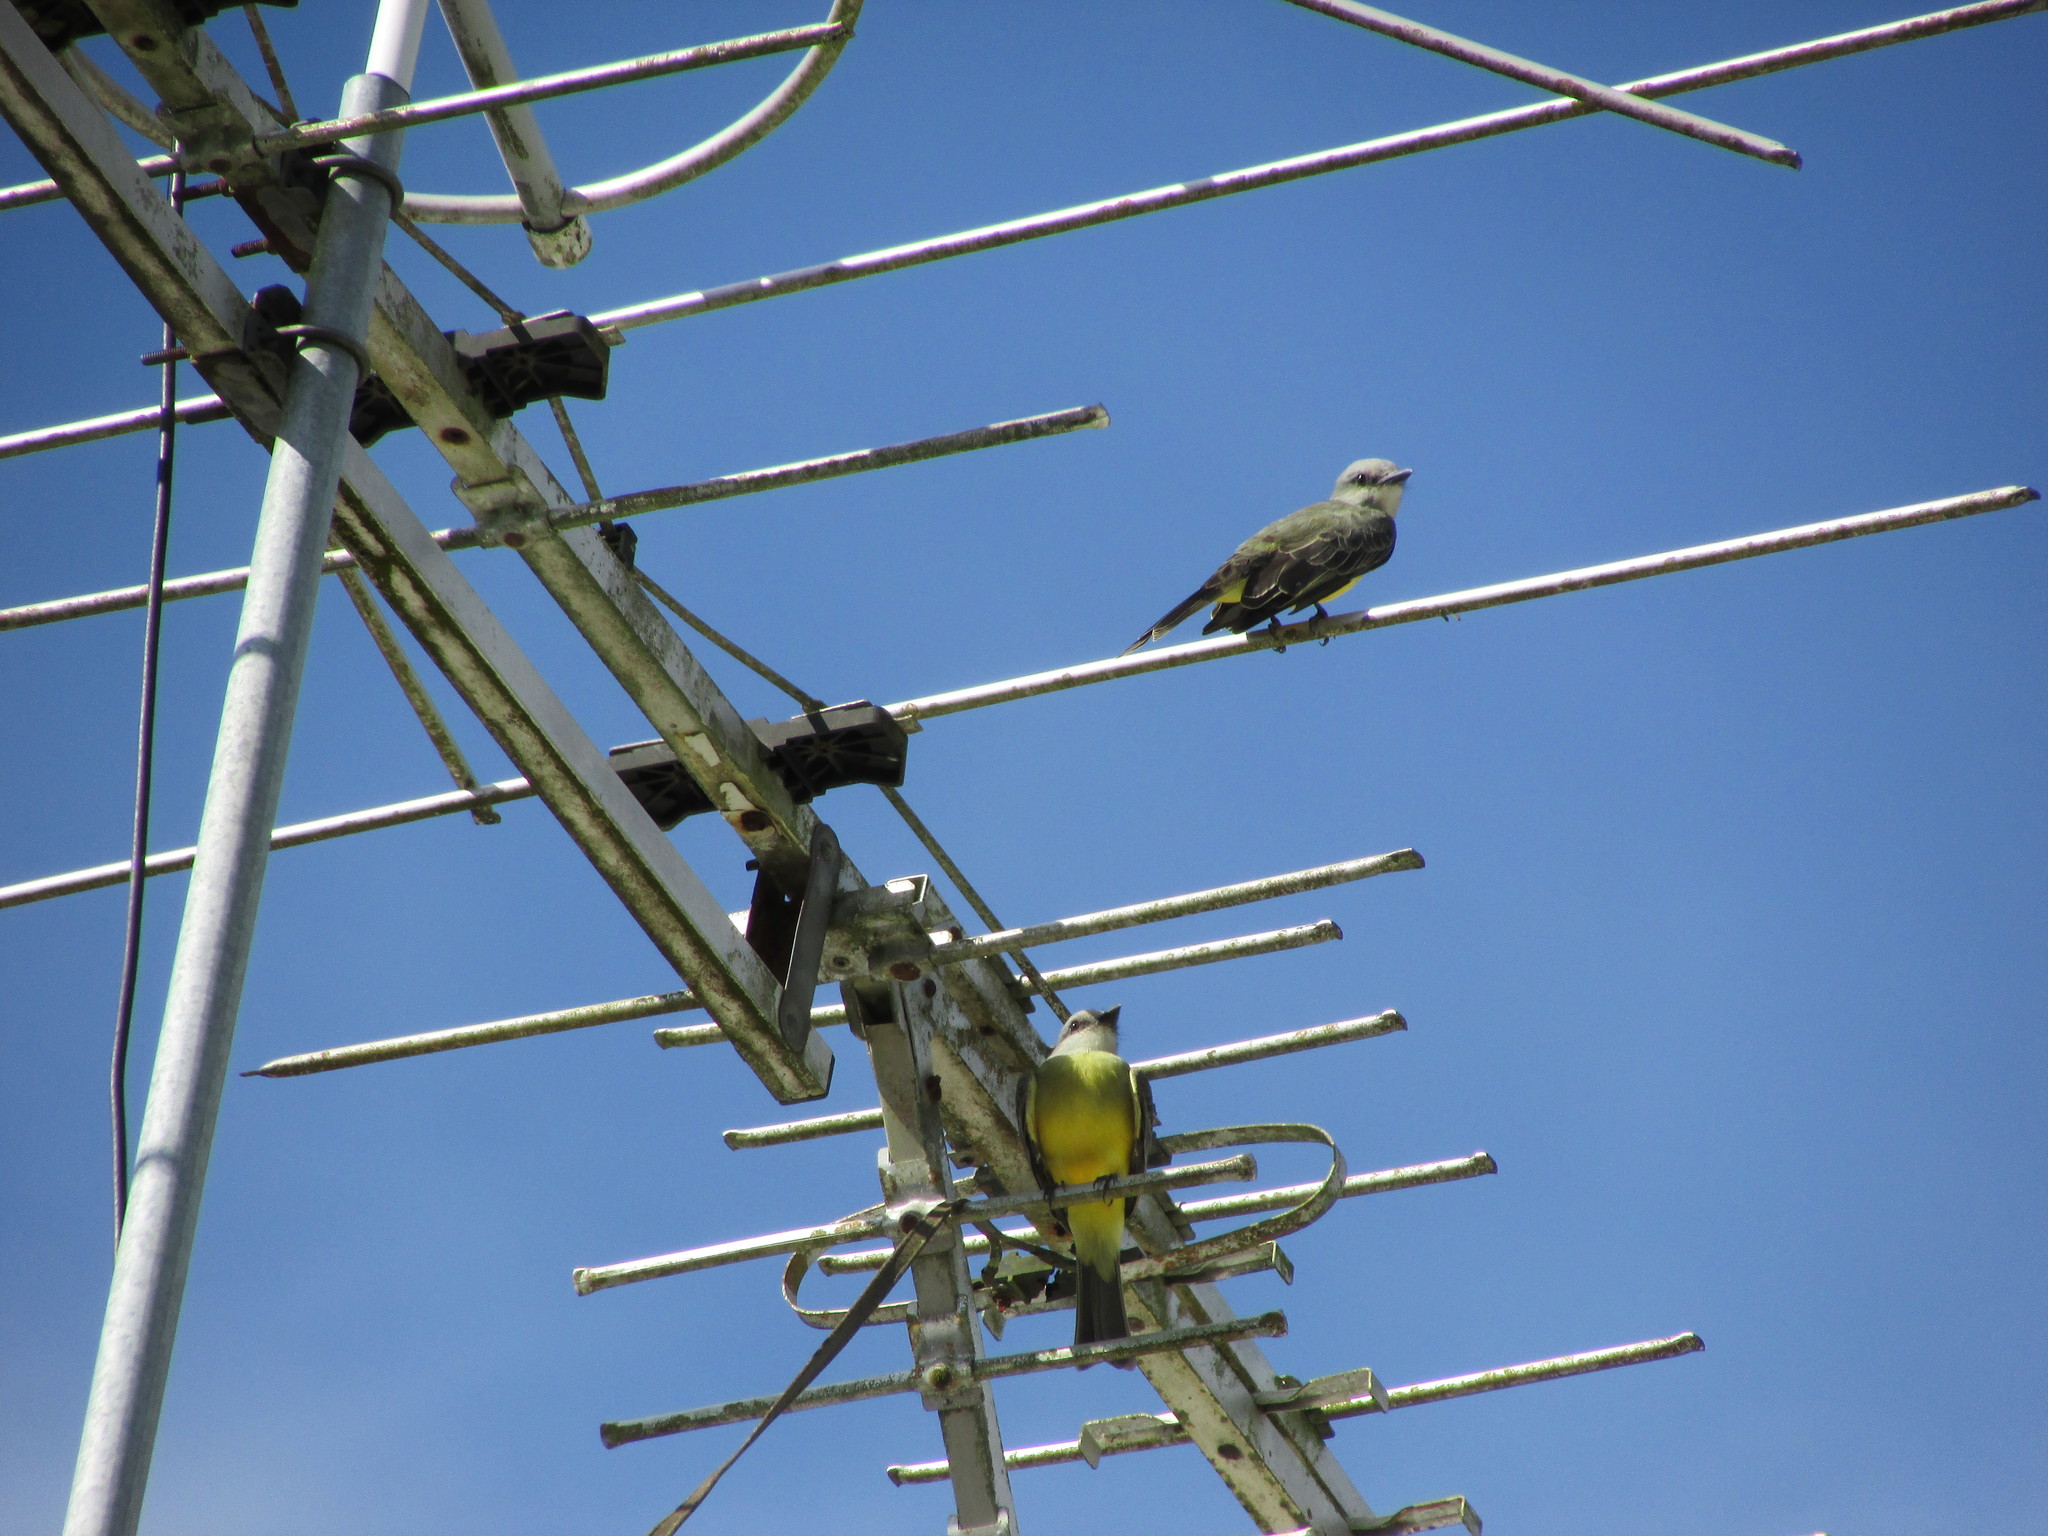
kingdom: Animalia
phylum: Chordata
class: Aves
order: Passeriformes
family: Tyrannidae
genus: Tyrannus
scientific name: Tyrannus melancholicus
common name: Tropical kingbird
